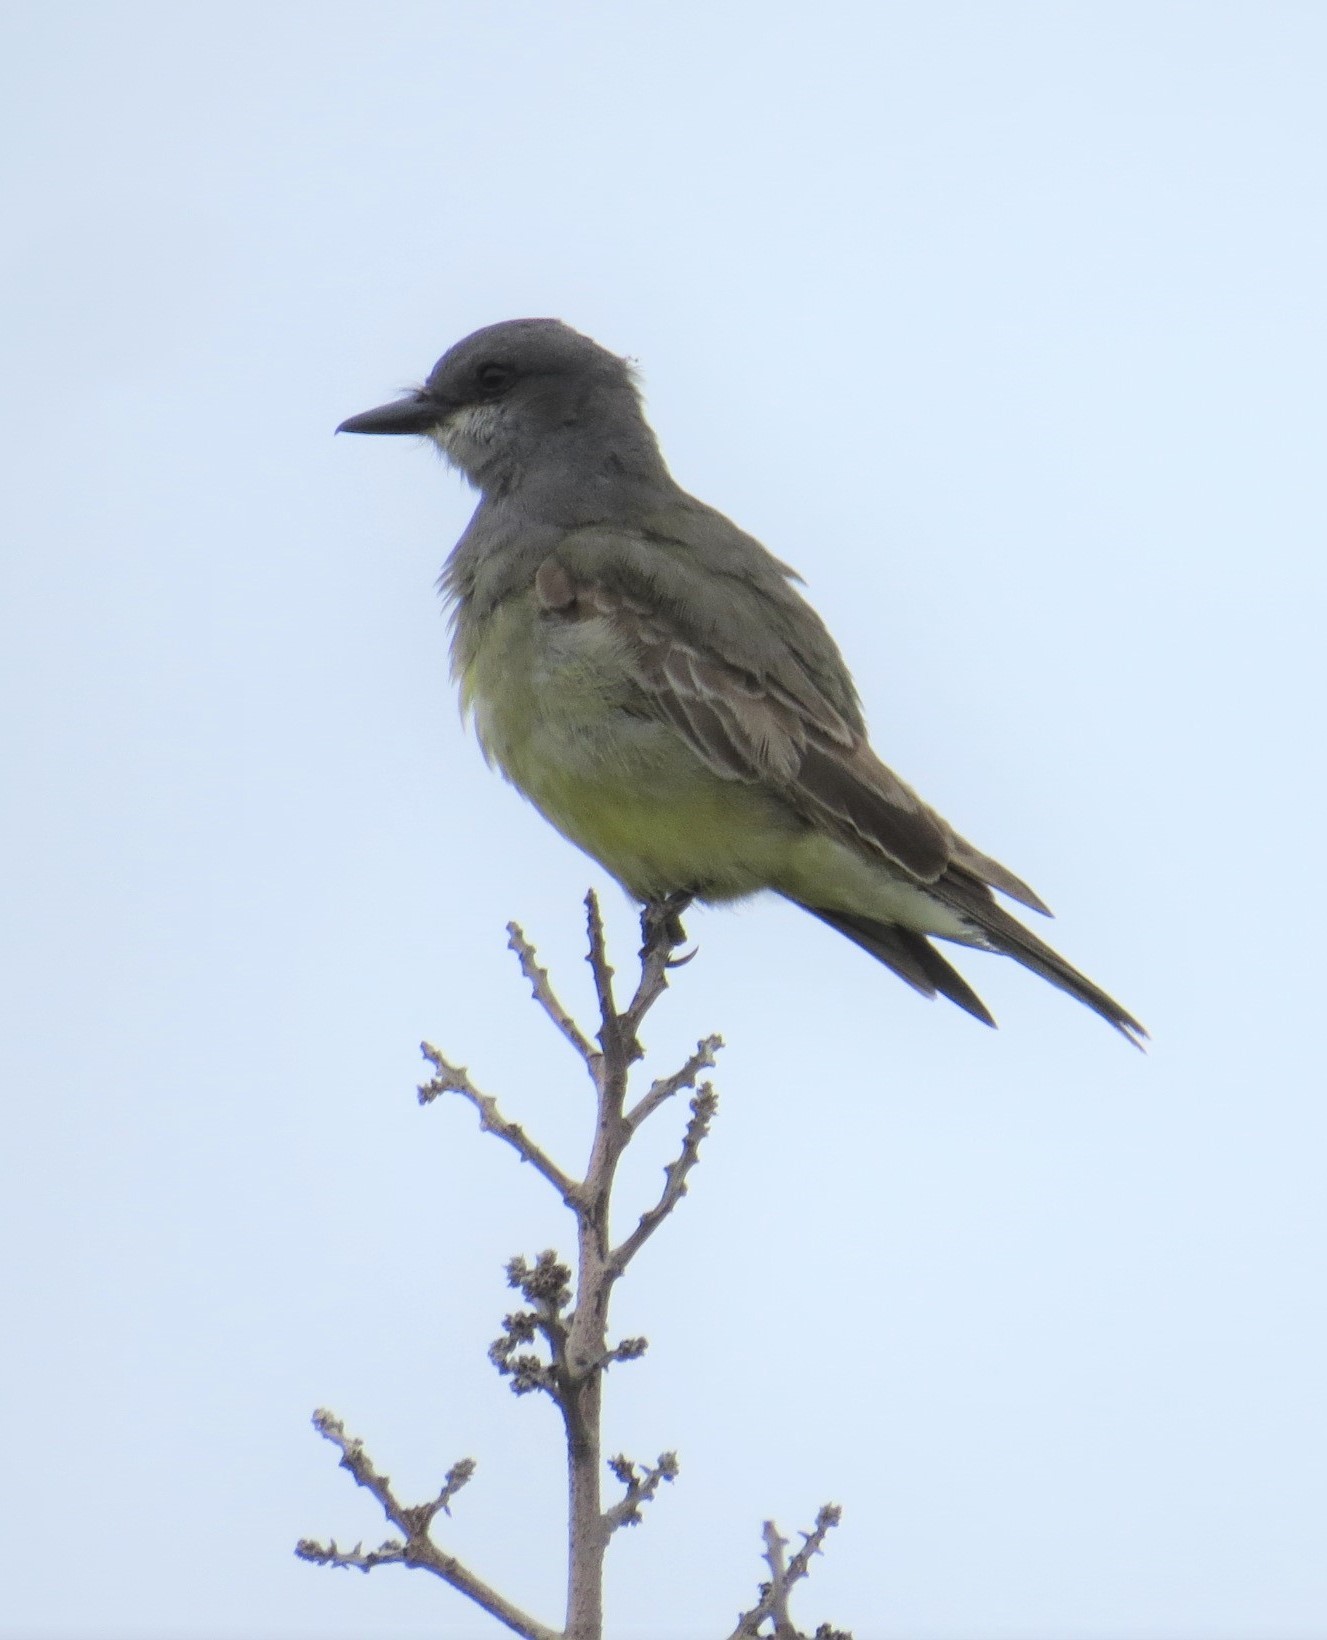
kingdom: Animalia
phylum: Chordata
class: Aves
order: Passeriformes
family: Tyrannidae
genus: Tyrannus
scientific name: Tyrannus vociferans
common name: Cassin's kingbird
